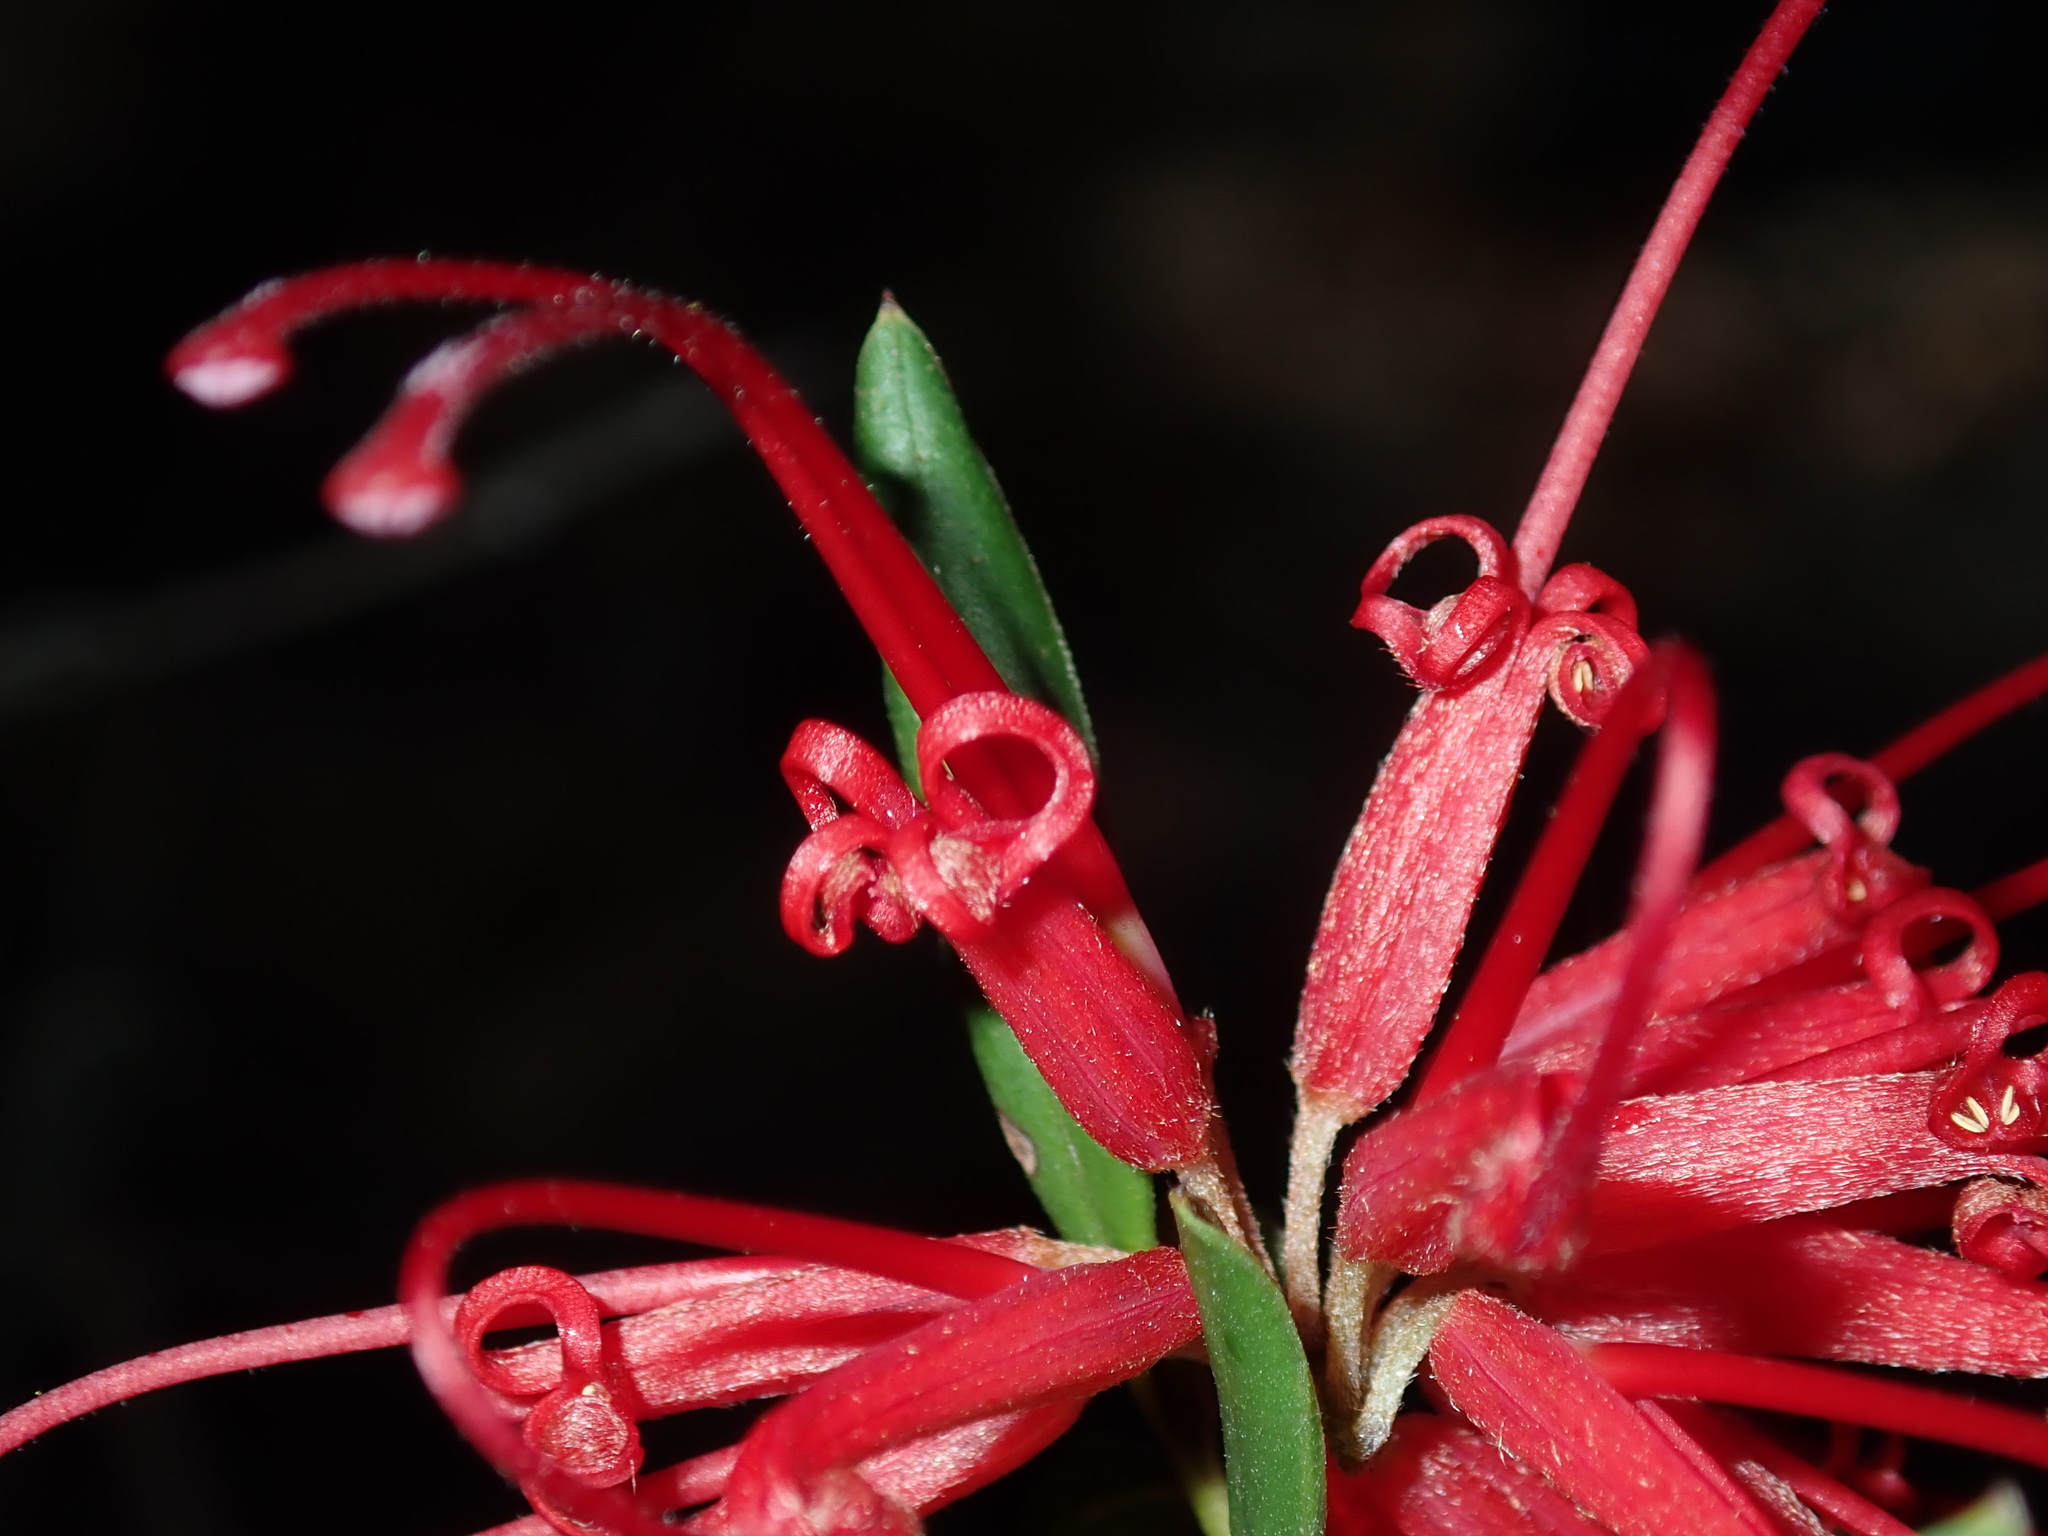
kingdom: Plantae
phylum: Tracheophyta
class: Magnoliopsida
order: Proteales
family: Proteaceae
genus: Grevillea
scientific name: Grevillea speciosa
